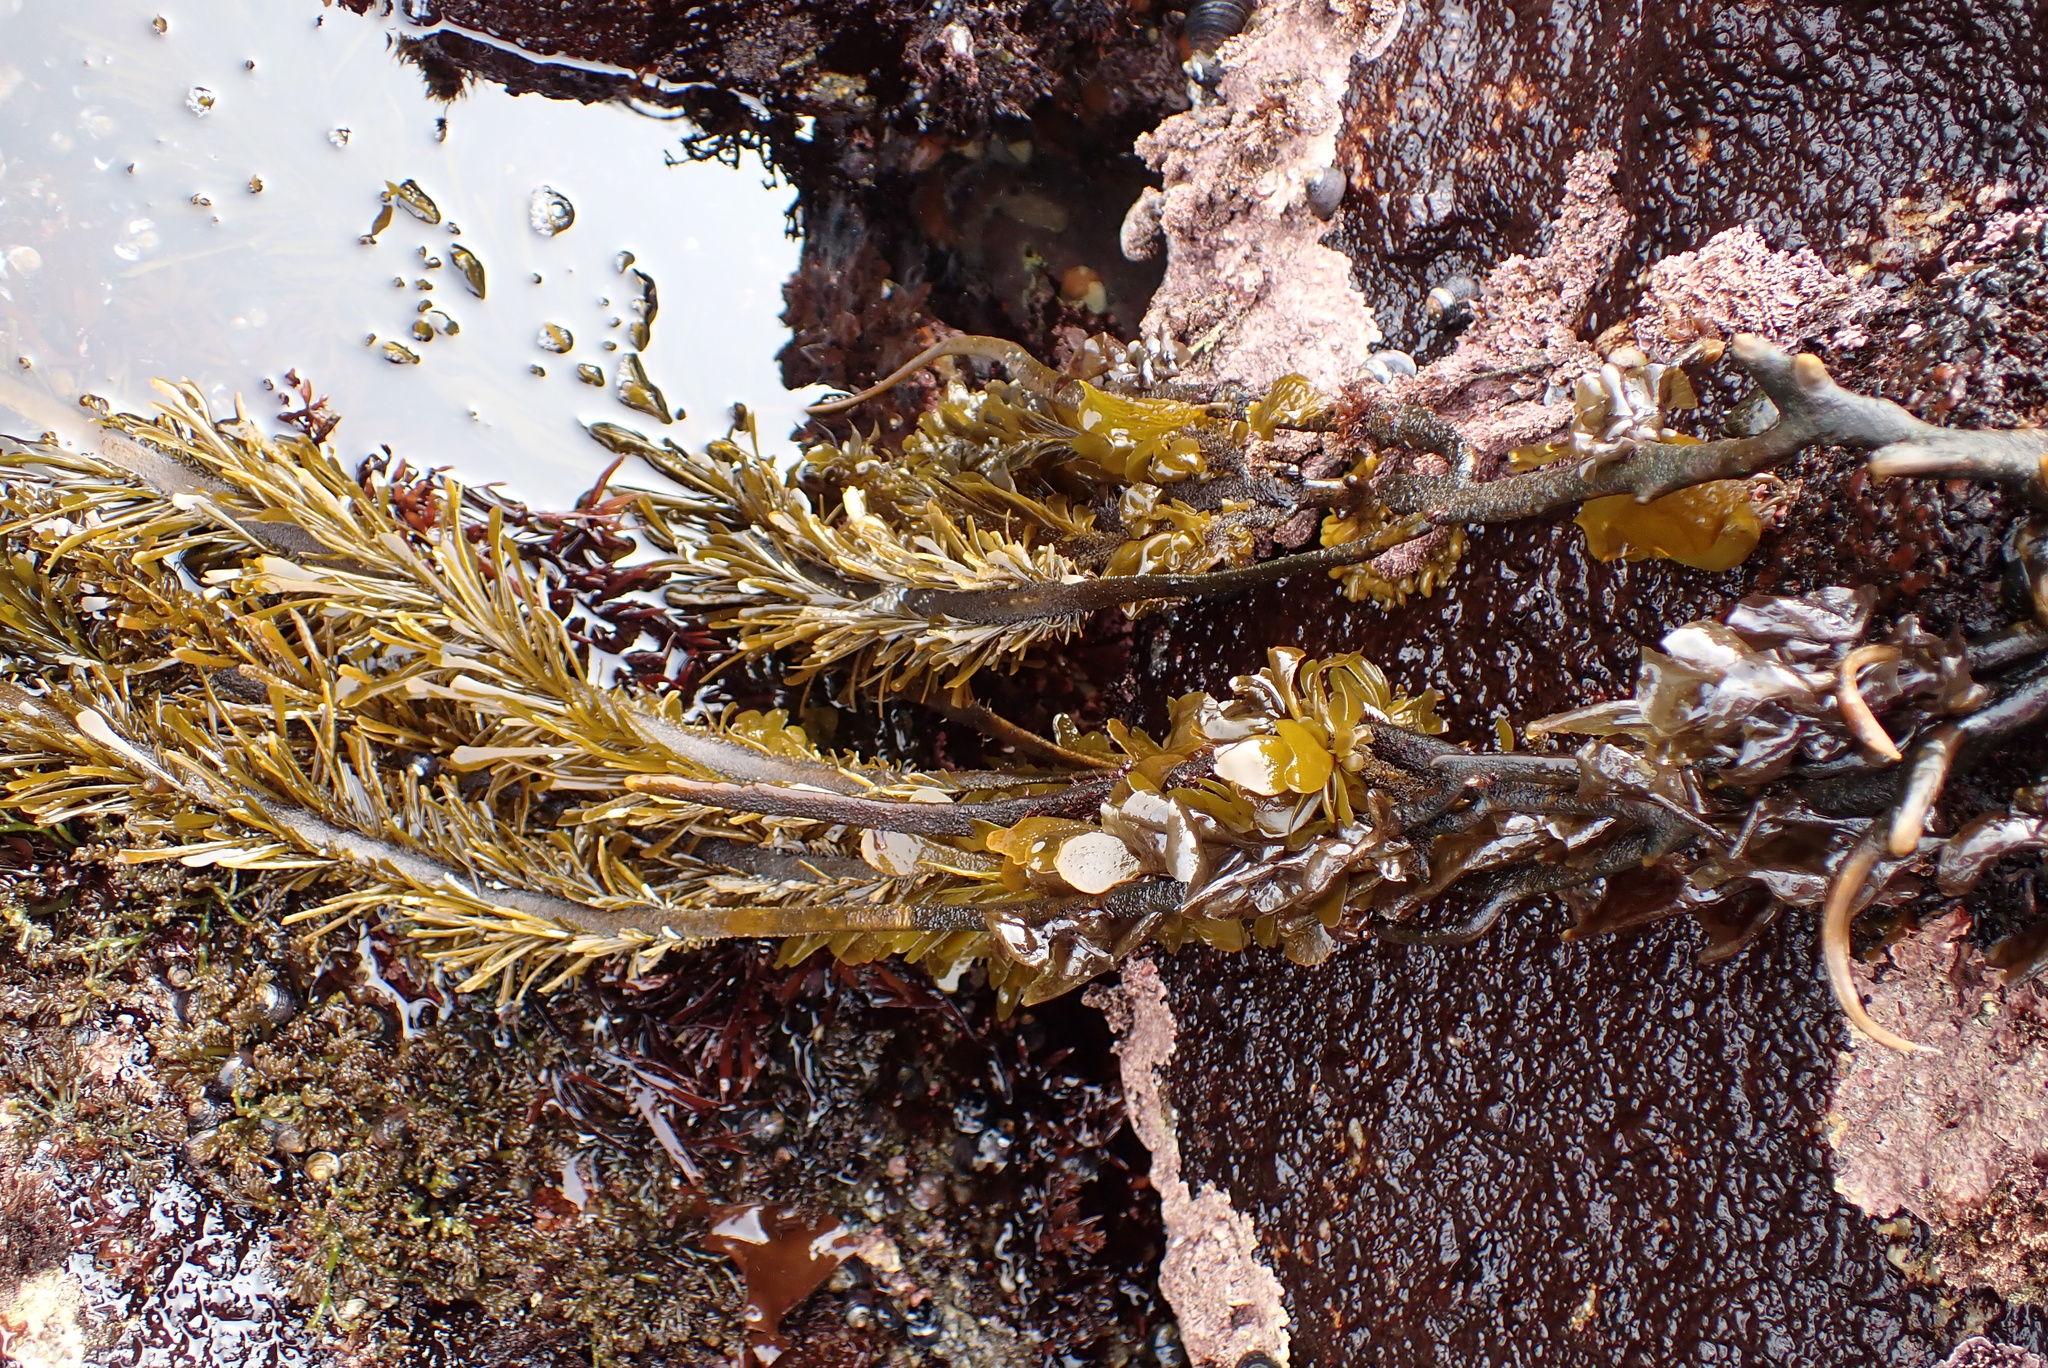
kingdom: Chromista
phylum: Ochrophyta
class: Phaeophyceae
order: Laminariales
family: Lessoniaceae
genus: Egregia
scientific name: Egregia menziesii
